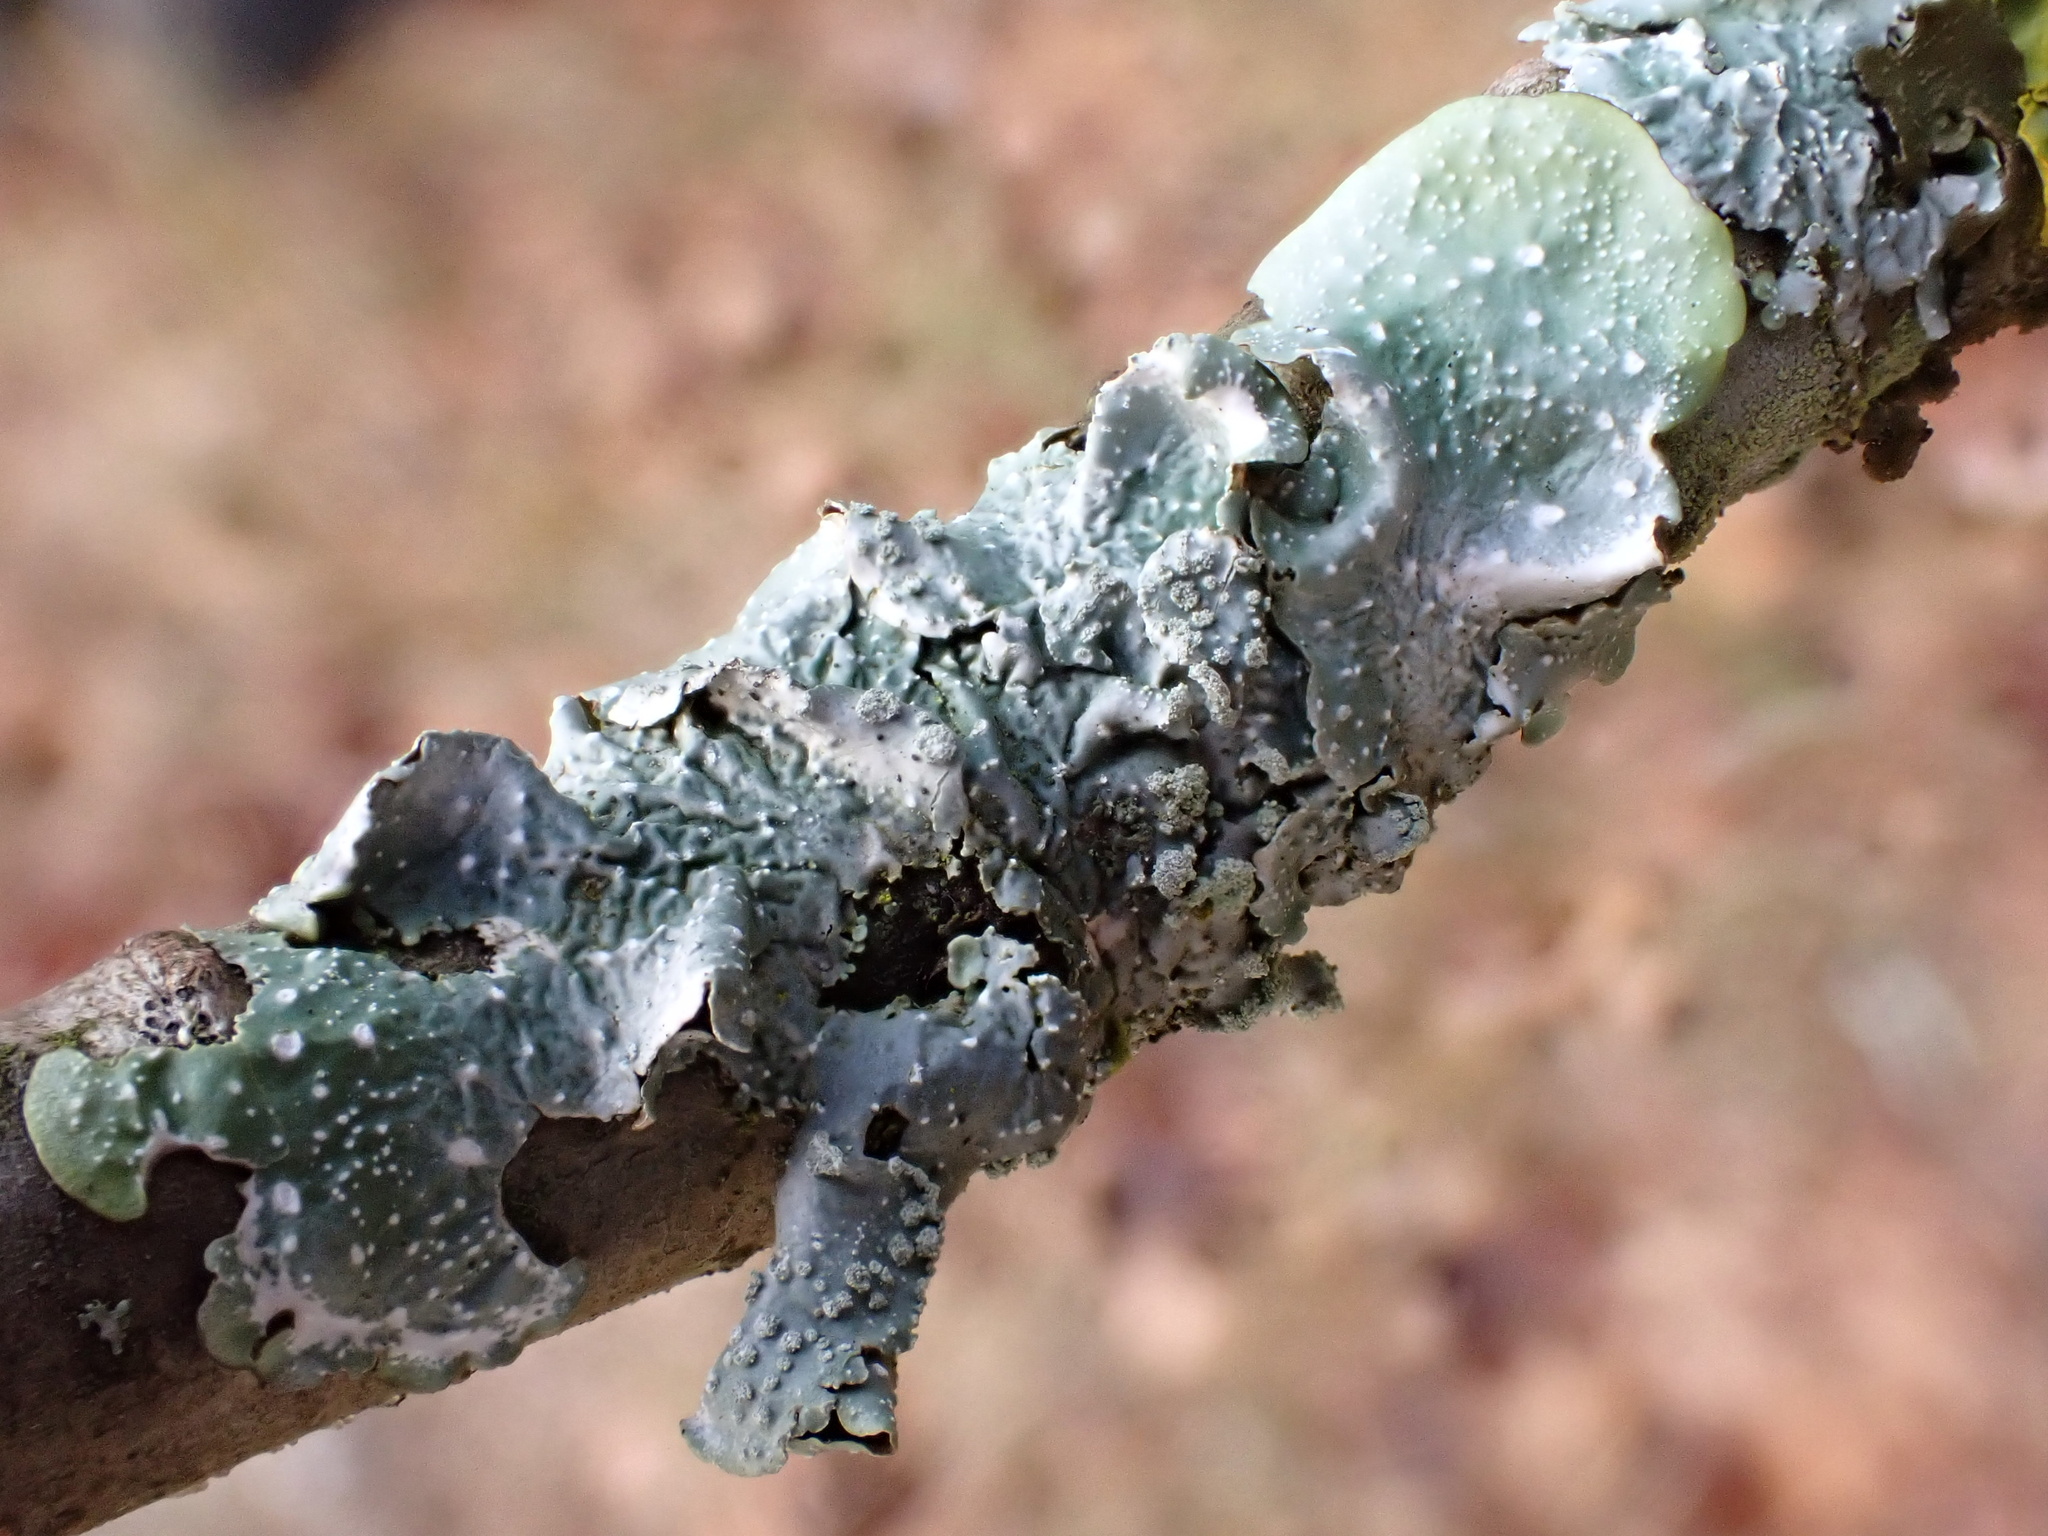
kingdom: Fungi
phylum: Ascomycota
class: Lecanoromycetes
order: Lecanorales
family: Parmeliaceae
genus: Punctelia
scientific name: Punctelia borreri
